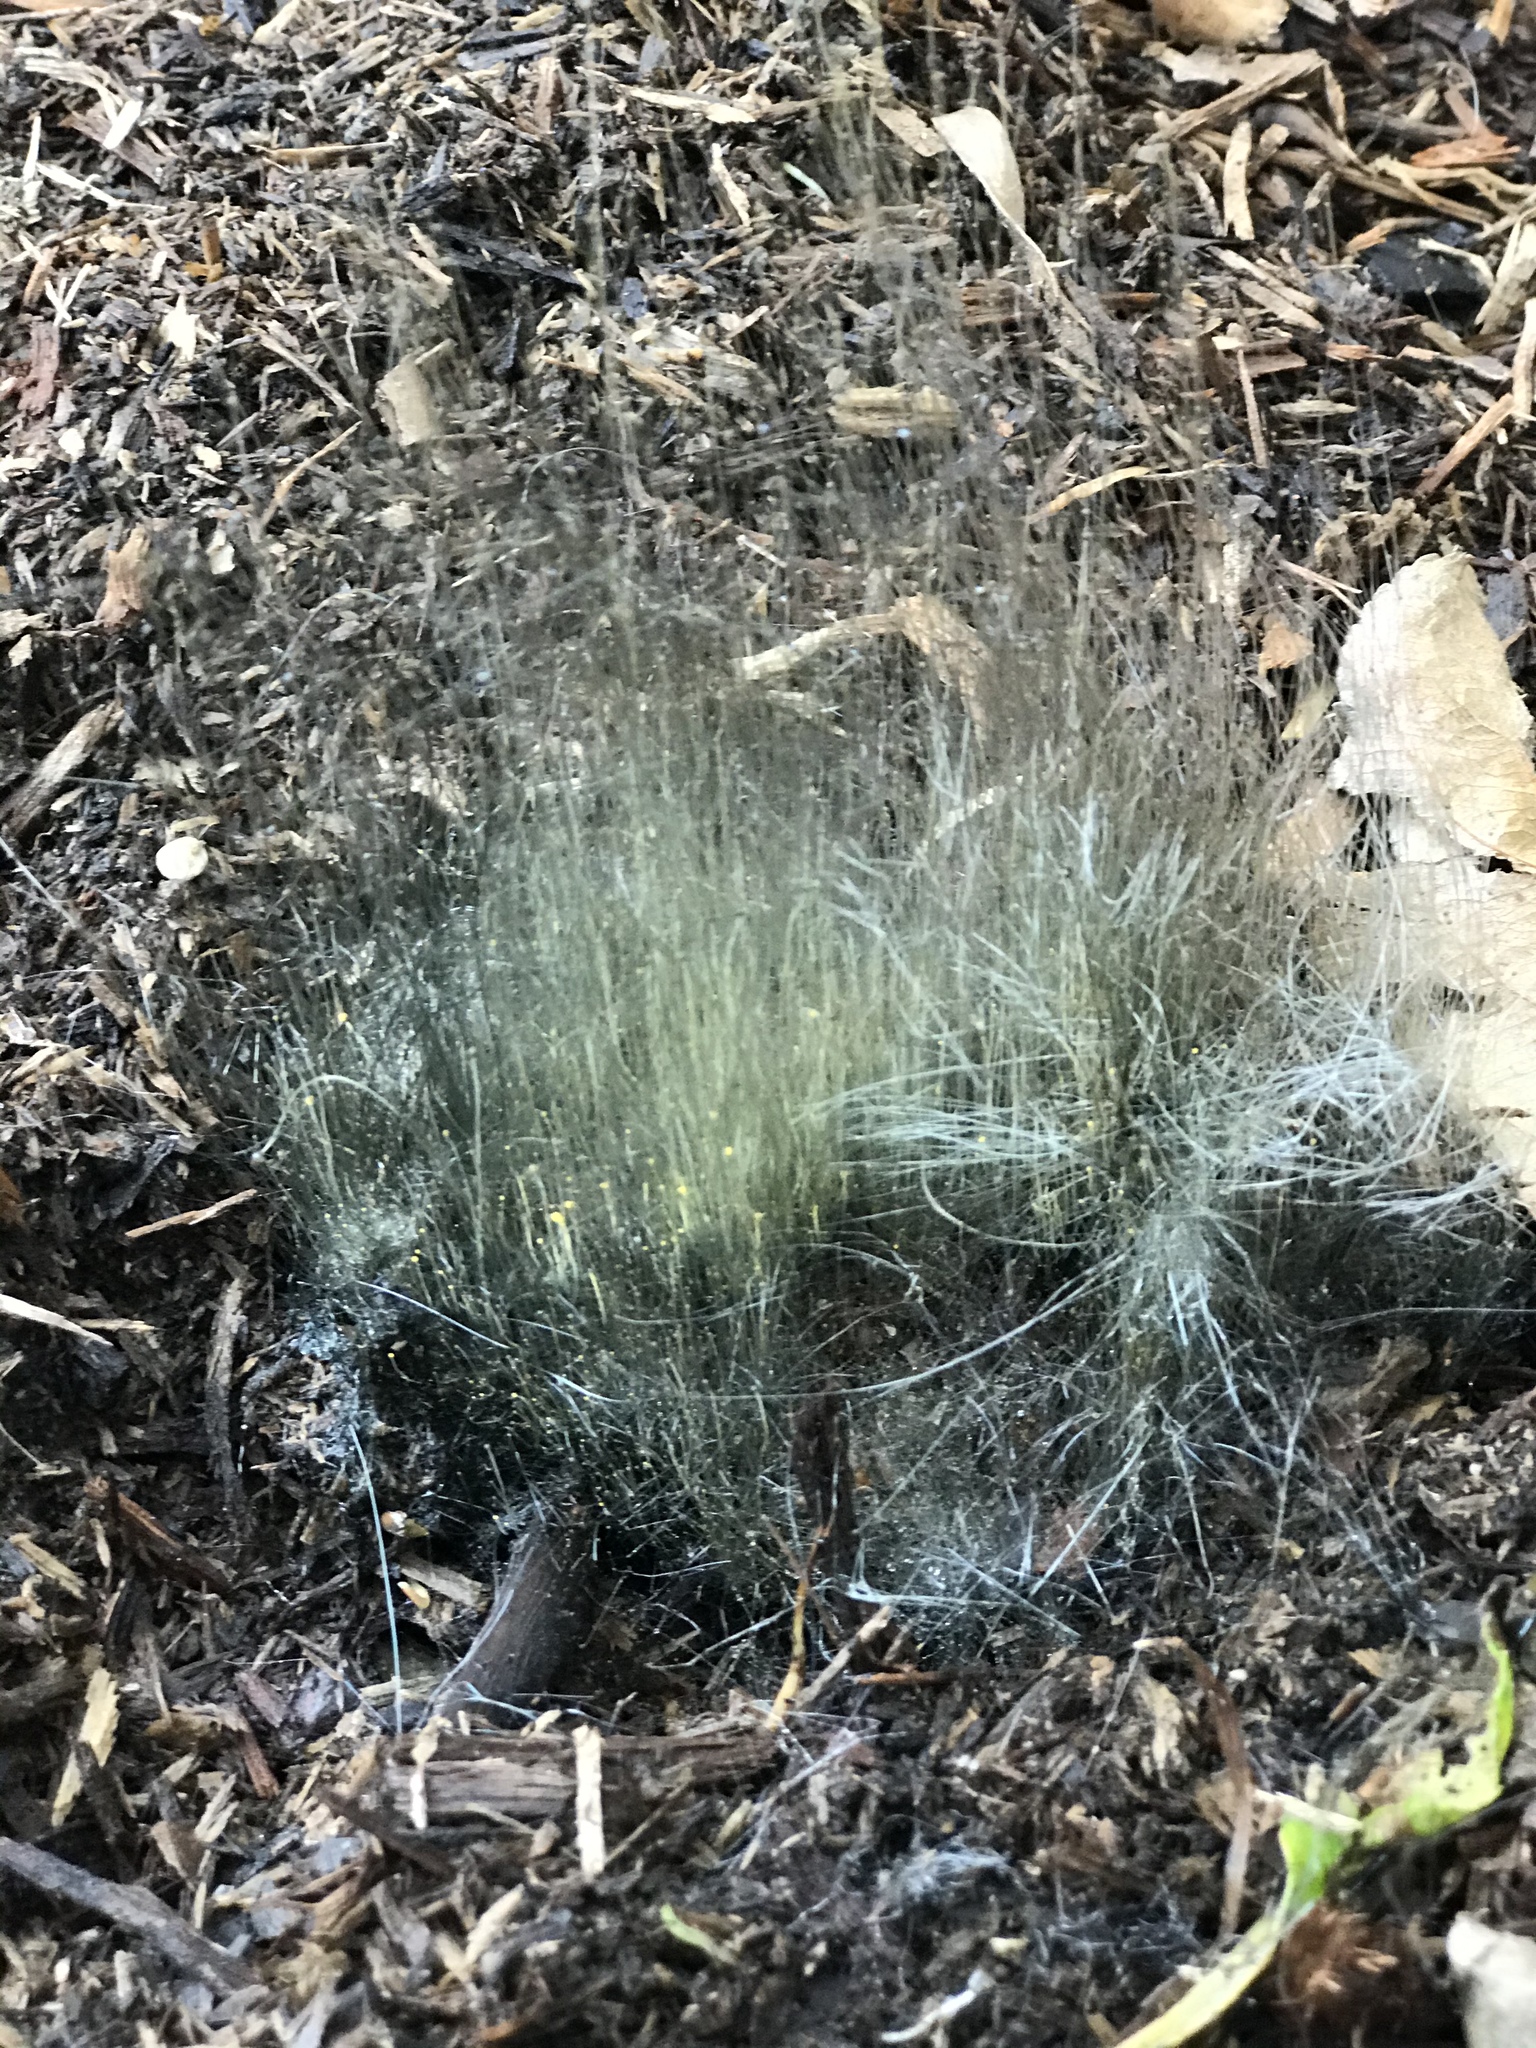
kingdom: Fungi
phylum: Mucoromycota
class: Mucoromycetes
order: Mucorales
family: Phycomycetaceae
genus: Phycomyces
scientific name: Phycomyces
